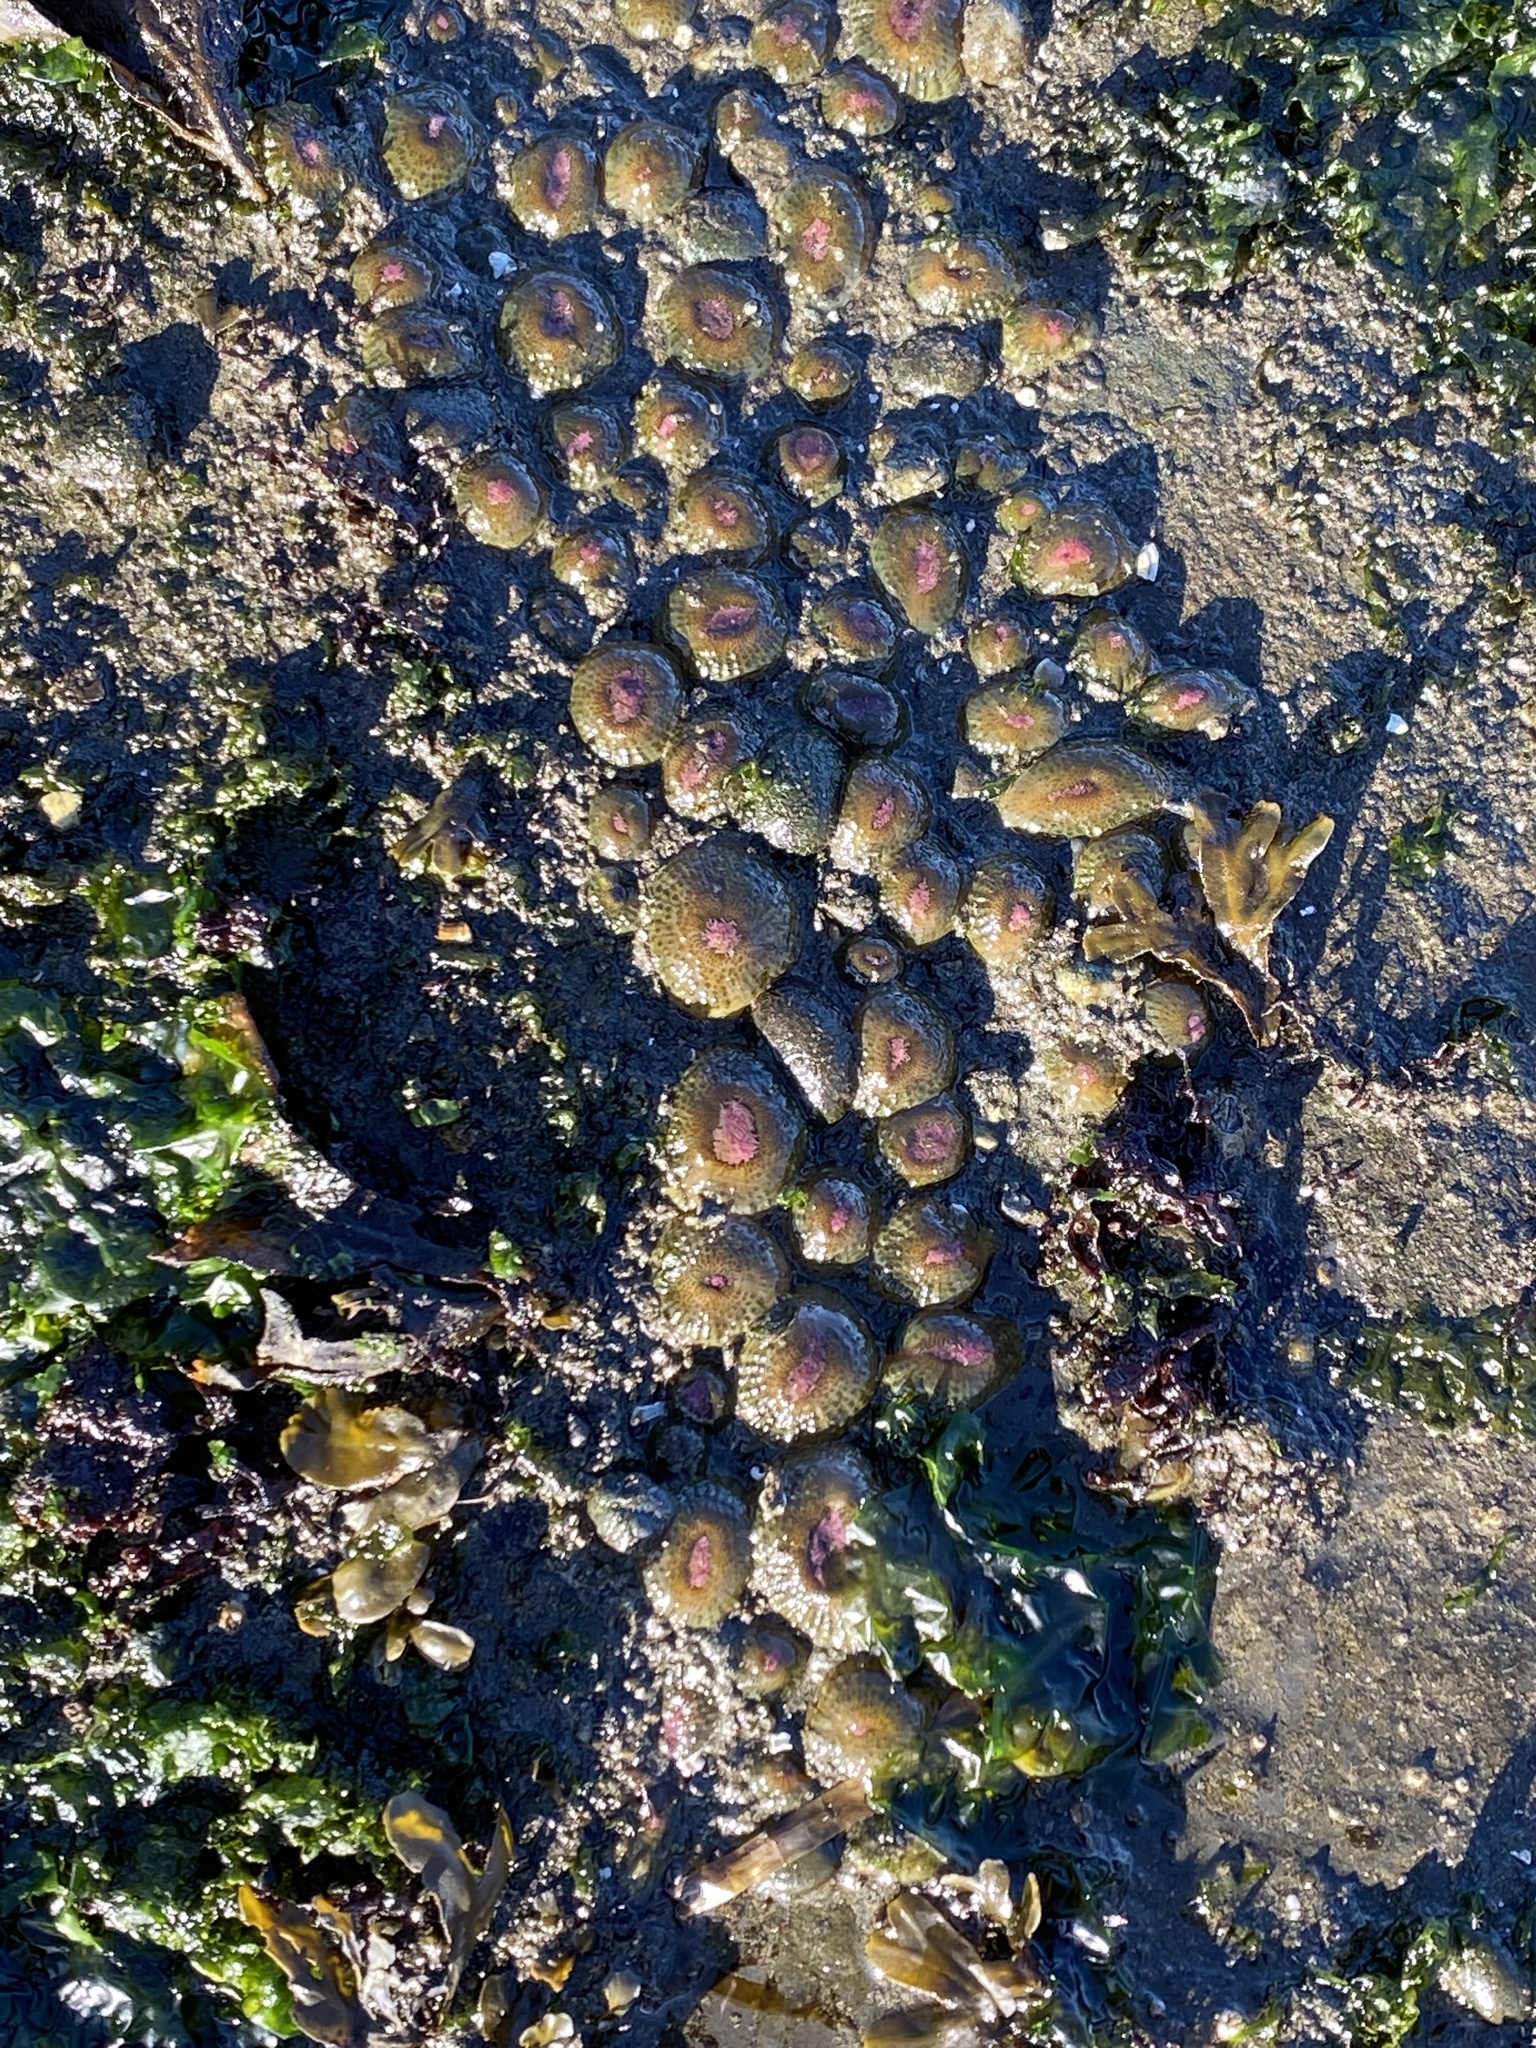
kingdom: Animalia
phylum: Cnidaria
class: Anthozoa
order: Actiniaria
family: Actiniidae
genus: Anthopleura
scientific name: Anthopleura elegantissima
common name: Clonal anemone
